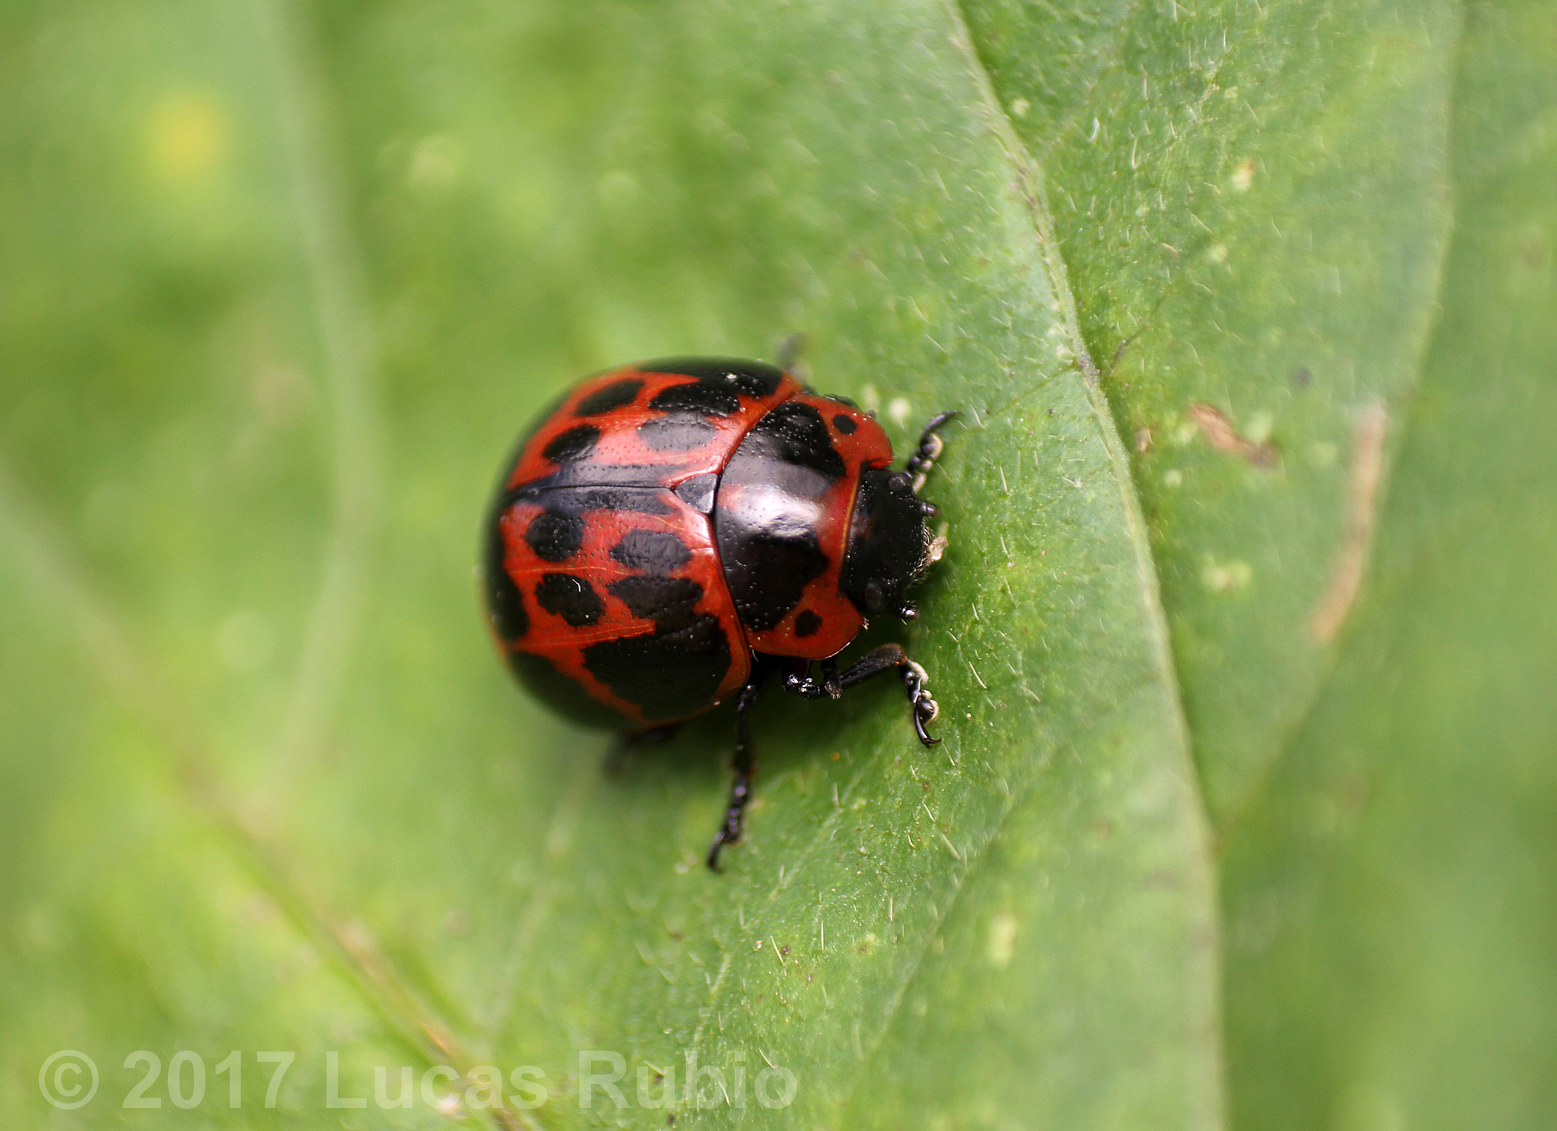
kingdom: Animalia
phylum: Arthropoda
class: Insecta
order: Coleoptera
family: Chrysomelidae
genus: Platyphora
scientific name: Platyphora
